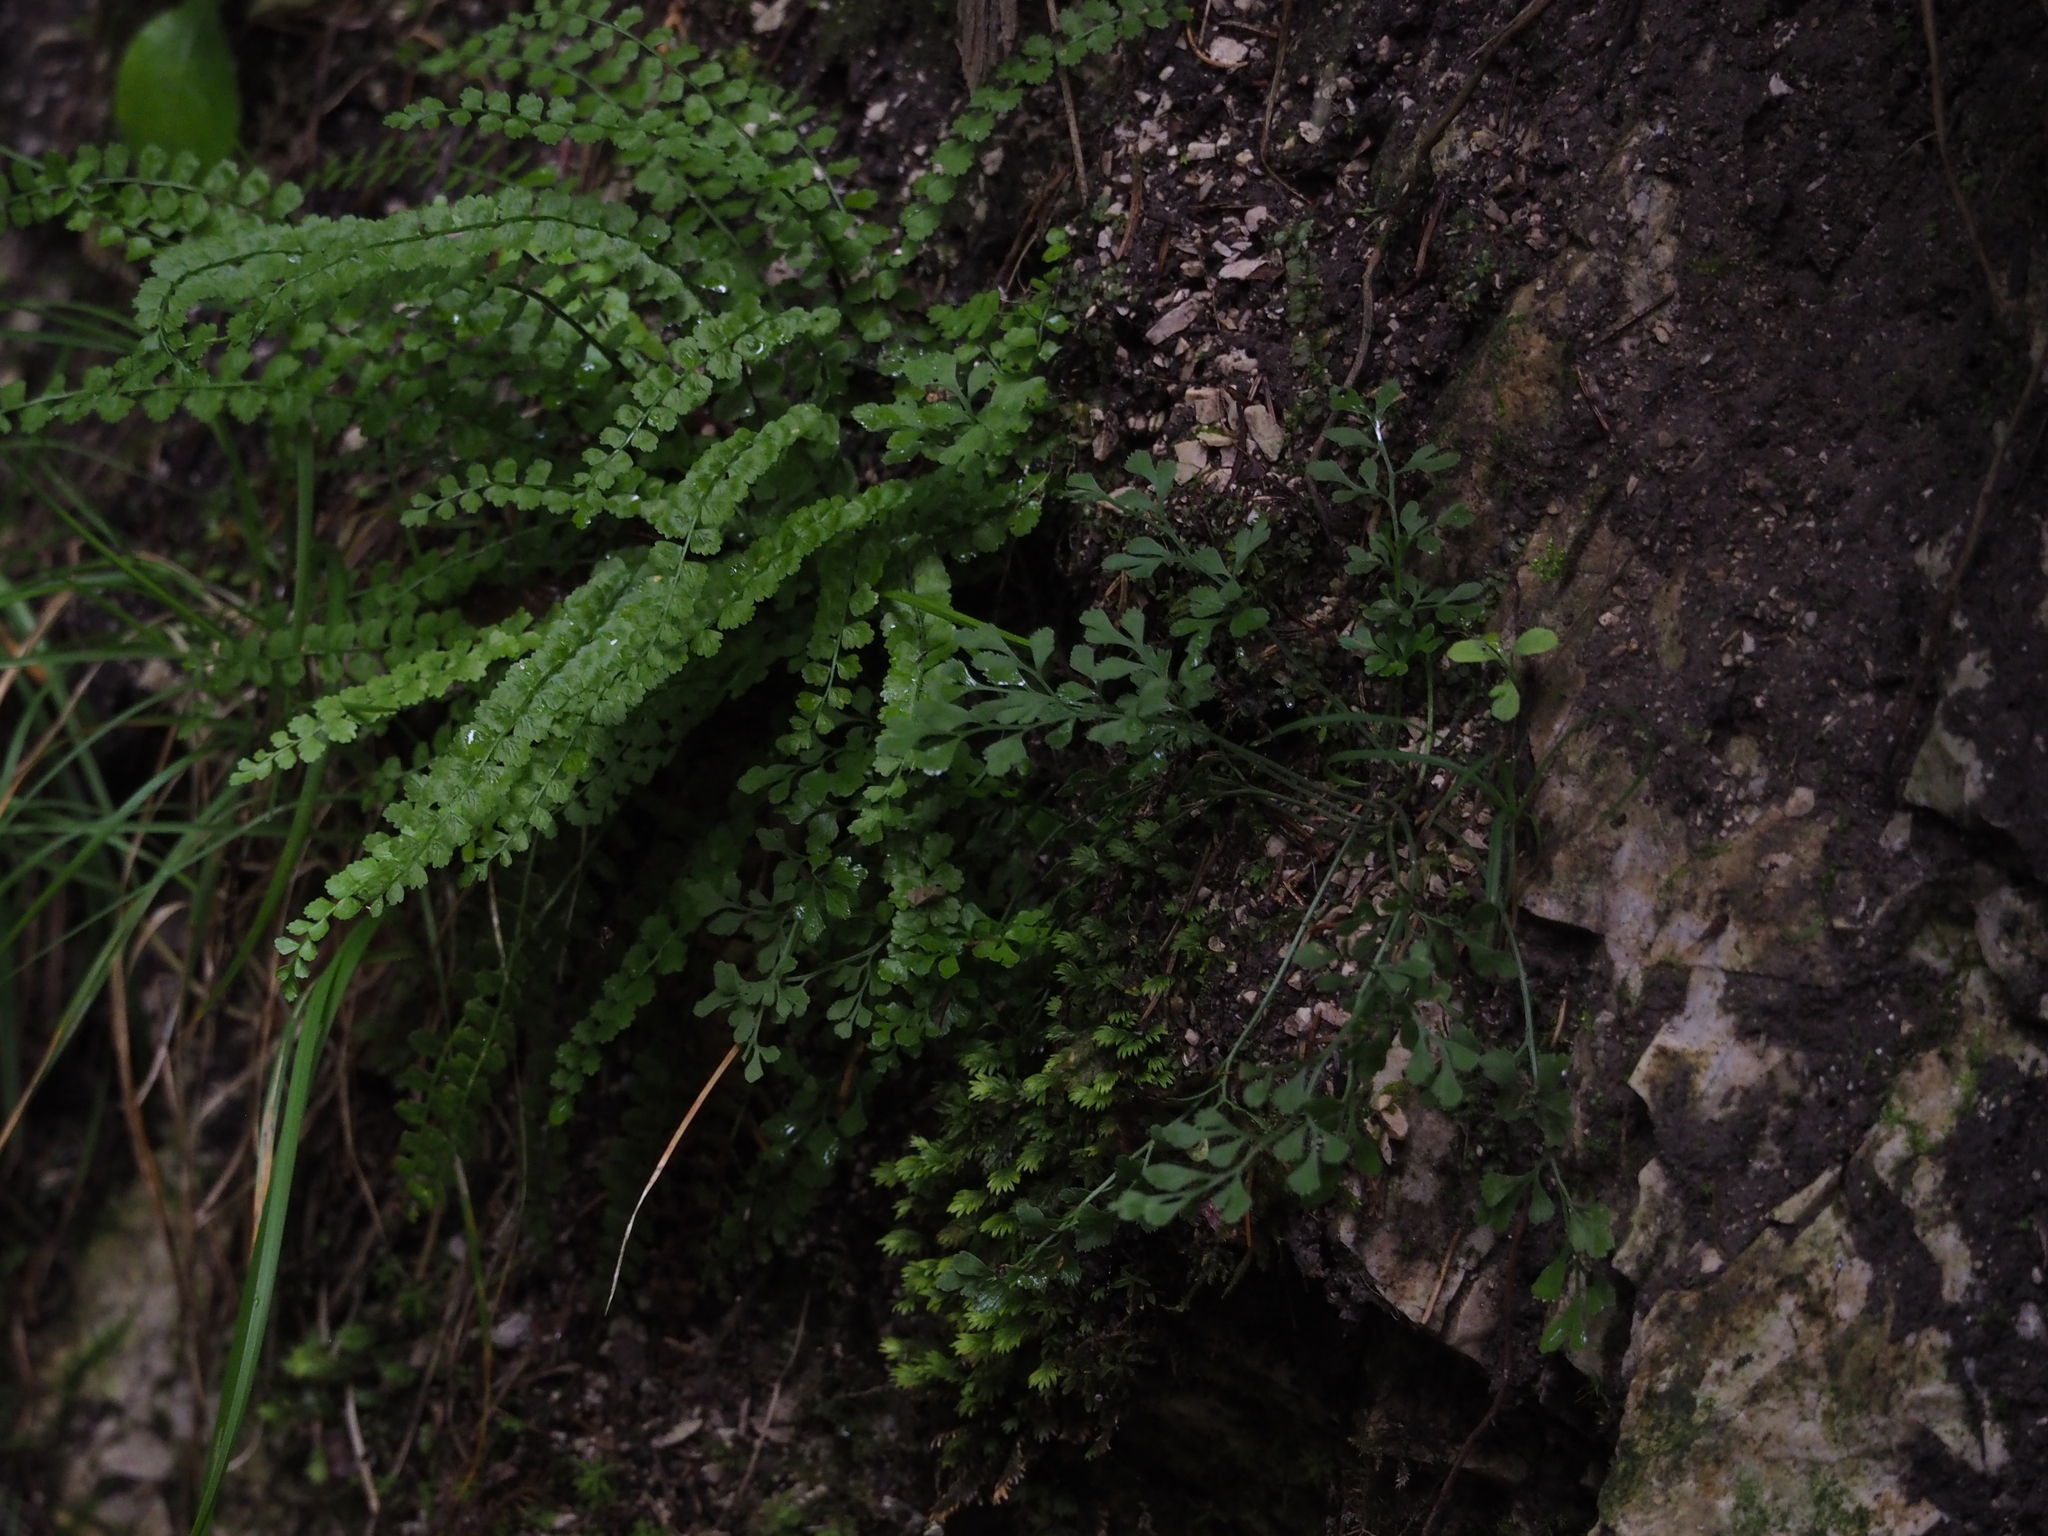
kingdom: Plantae
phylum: Tracheophyta
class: Polypodiopsida
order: Polypodiales
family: Aspleniaceae
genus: Asplenium
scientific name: Asplenium viride
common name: Green spleenwort
